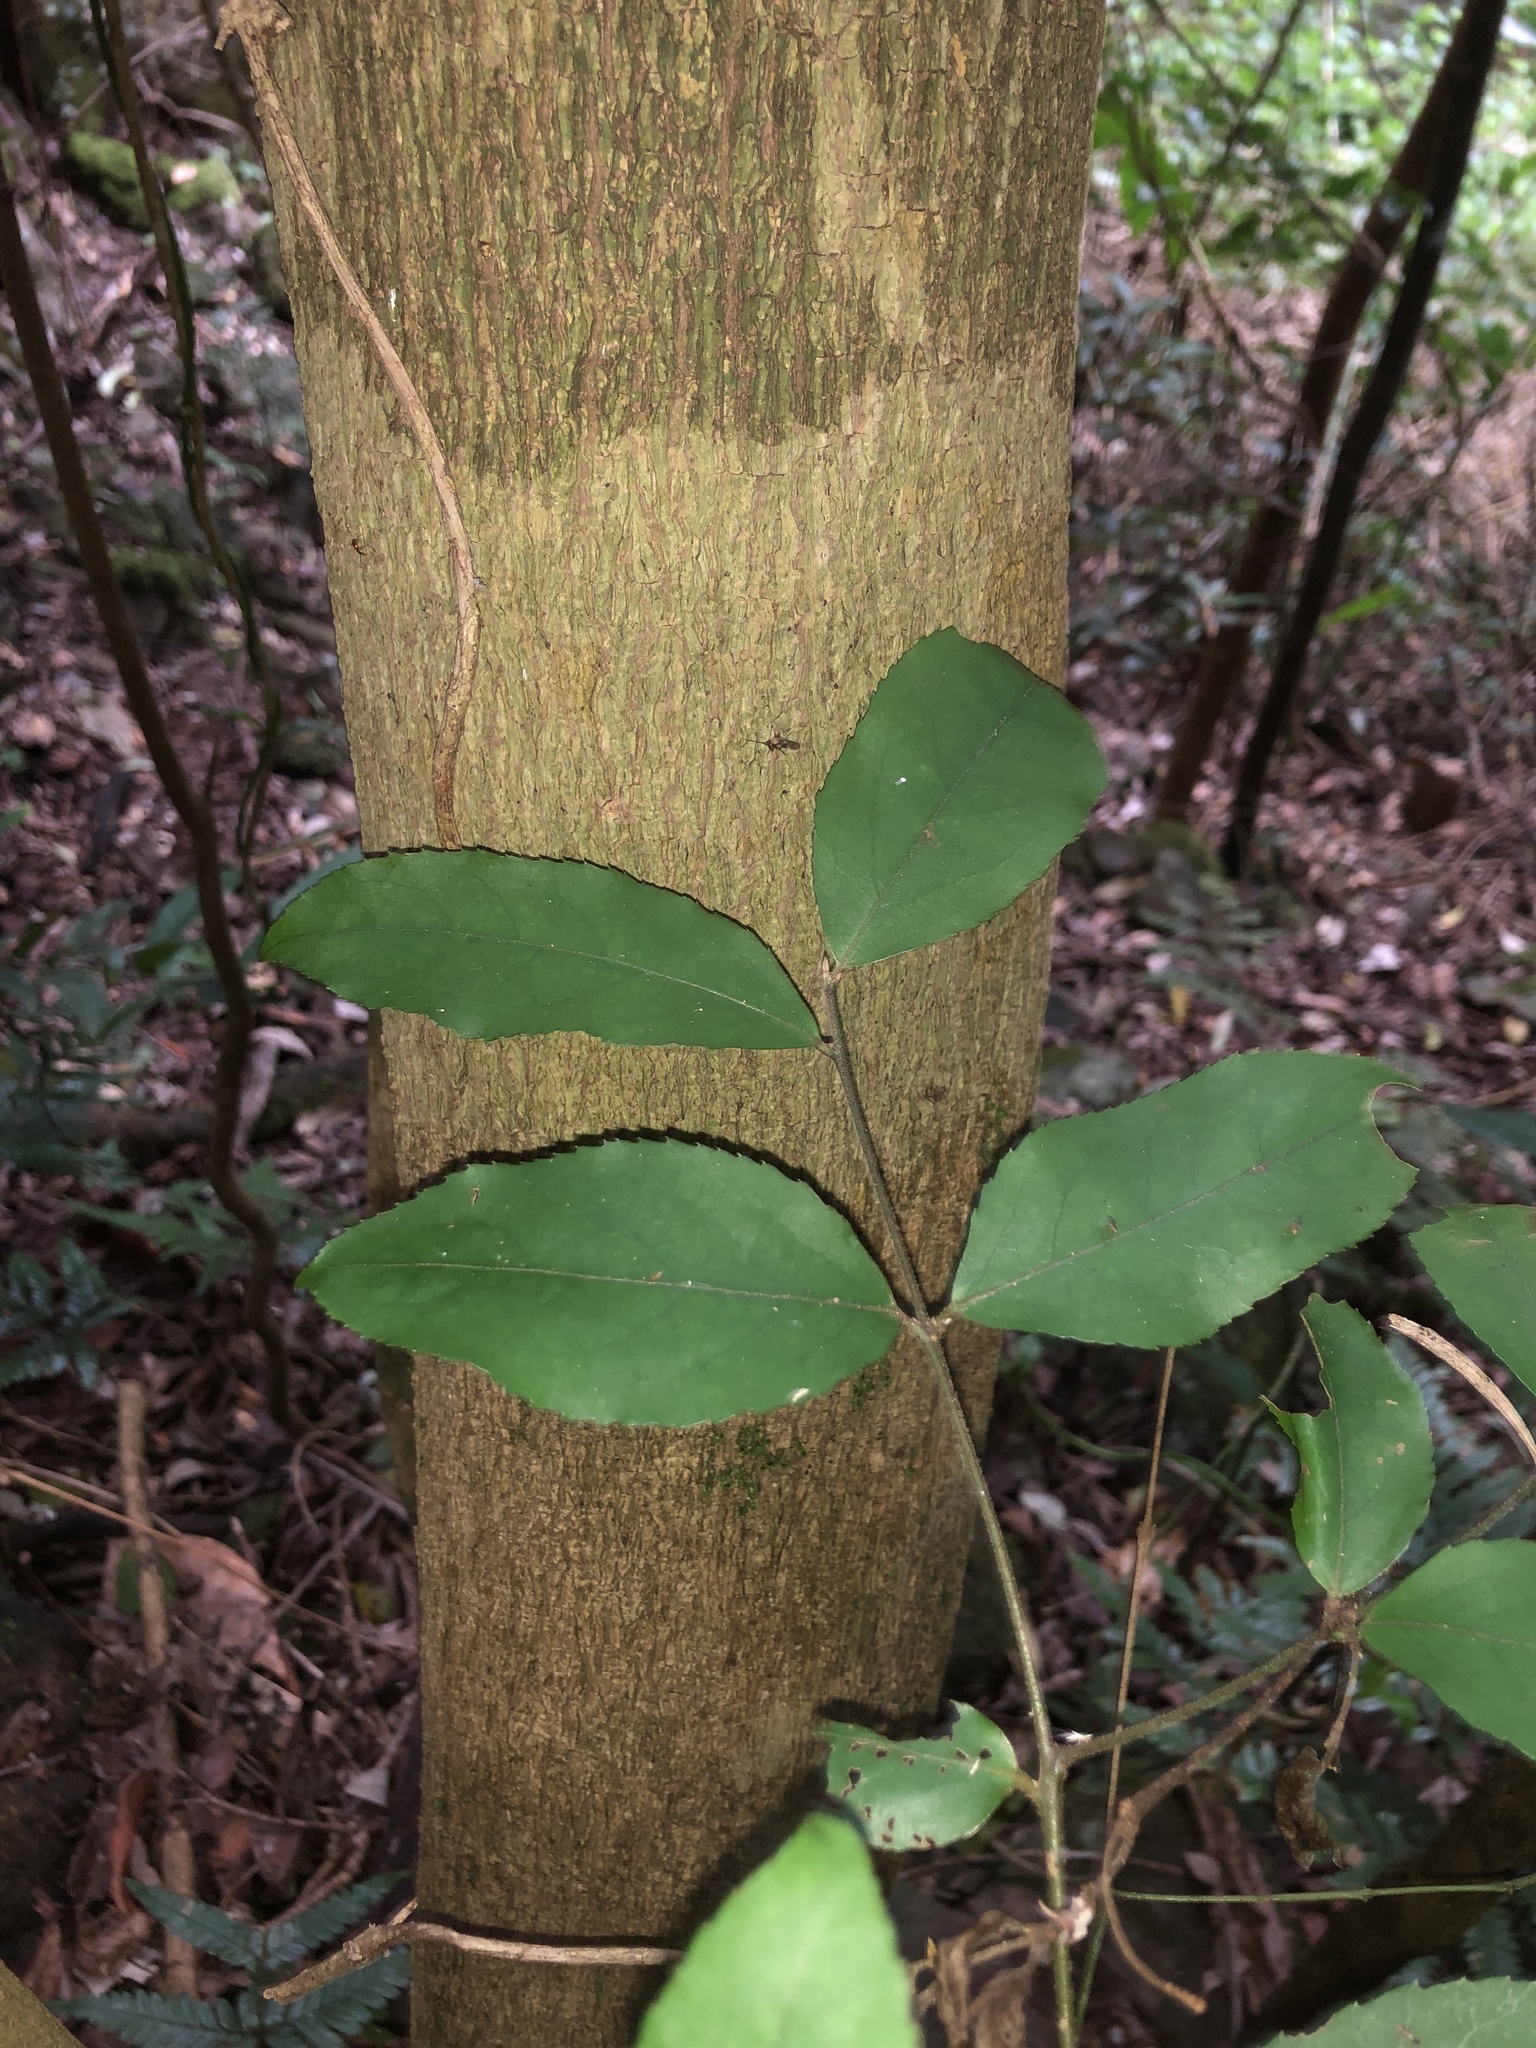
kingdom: Plantae
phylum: Tracheophyta
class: Magnoliopsida
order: Laurales
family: Atherospermataceae
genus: Daphnandra
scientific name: Daphnandra melasmena
